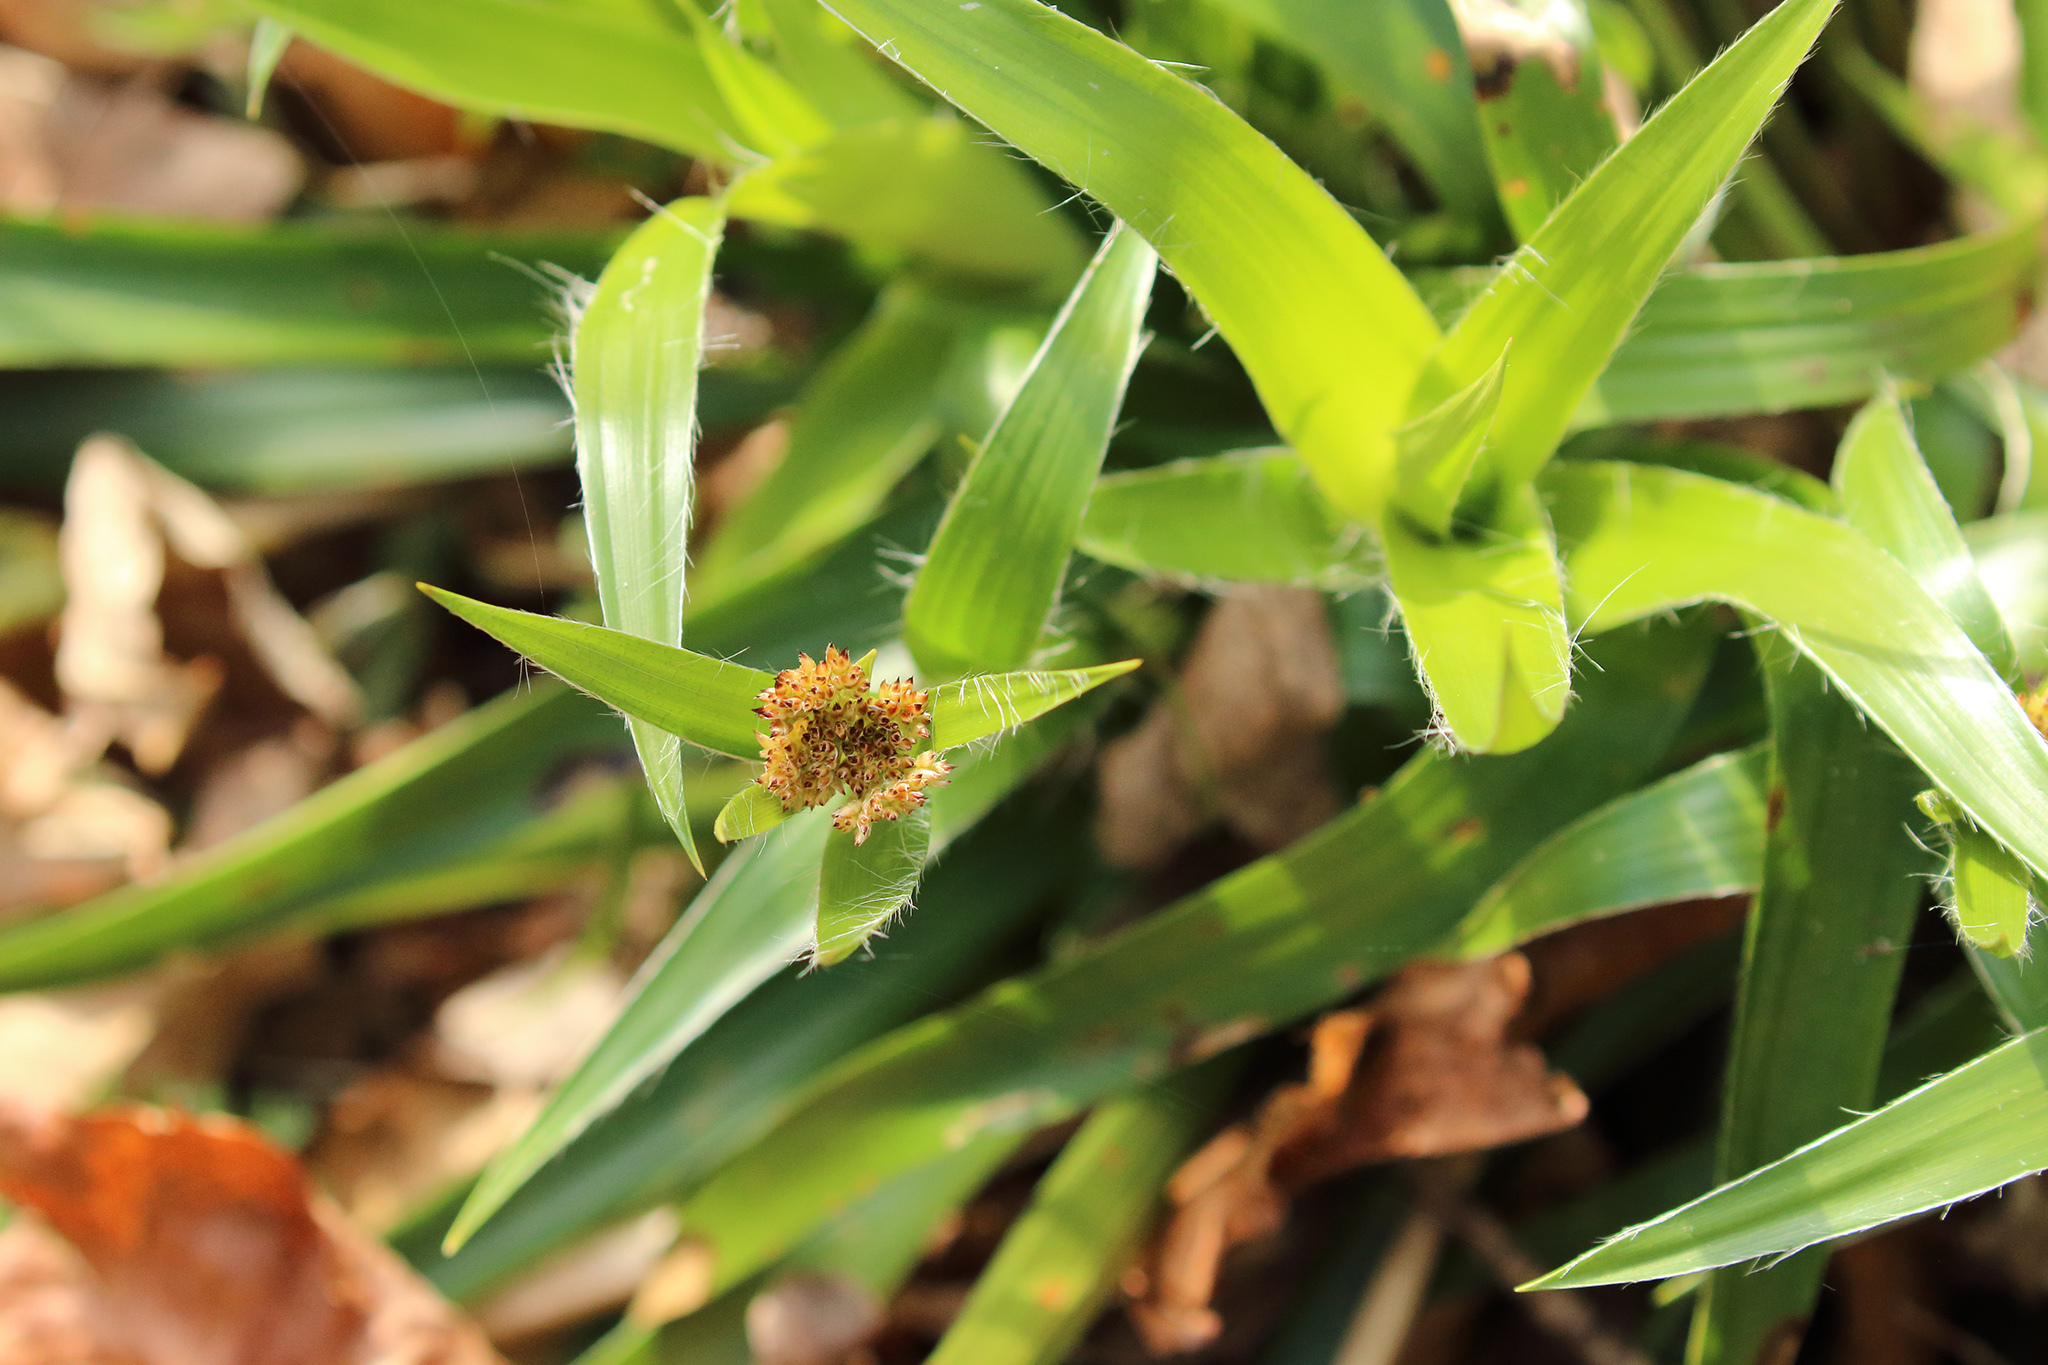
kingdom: Plantae
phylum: Tracheophyta
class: Liliopsida
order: Poales
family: Juncaceae
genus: Luzula
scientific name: Luzula sylvatica
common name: Great wood-rush
